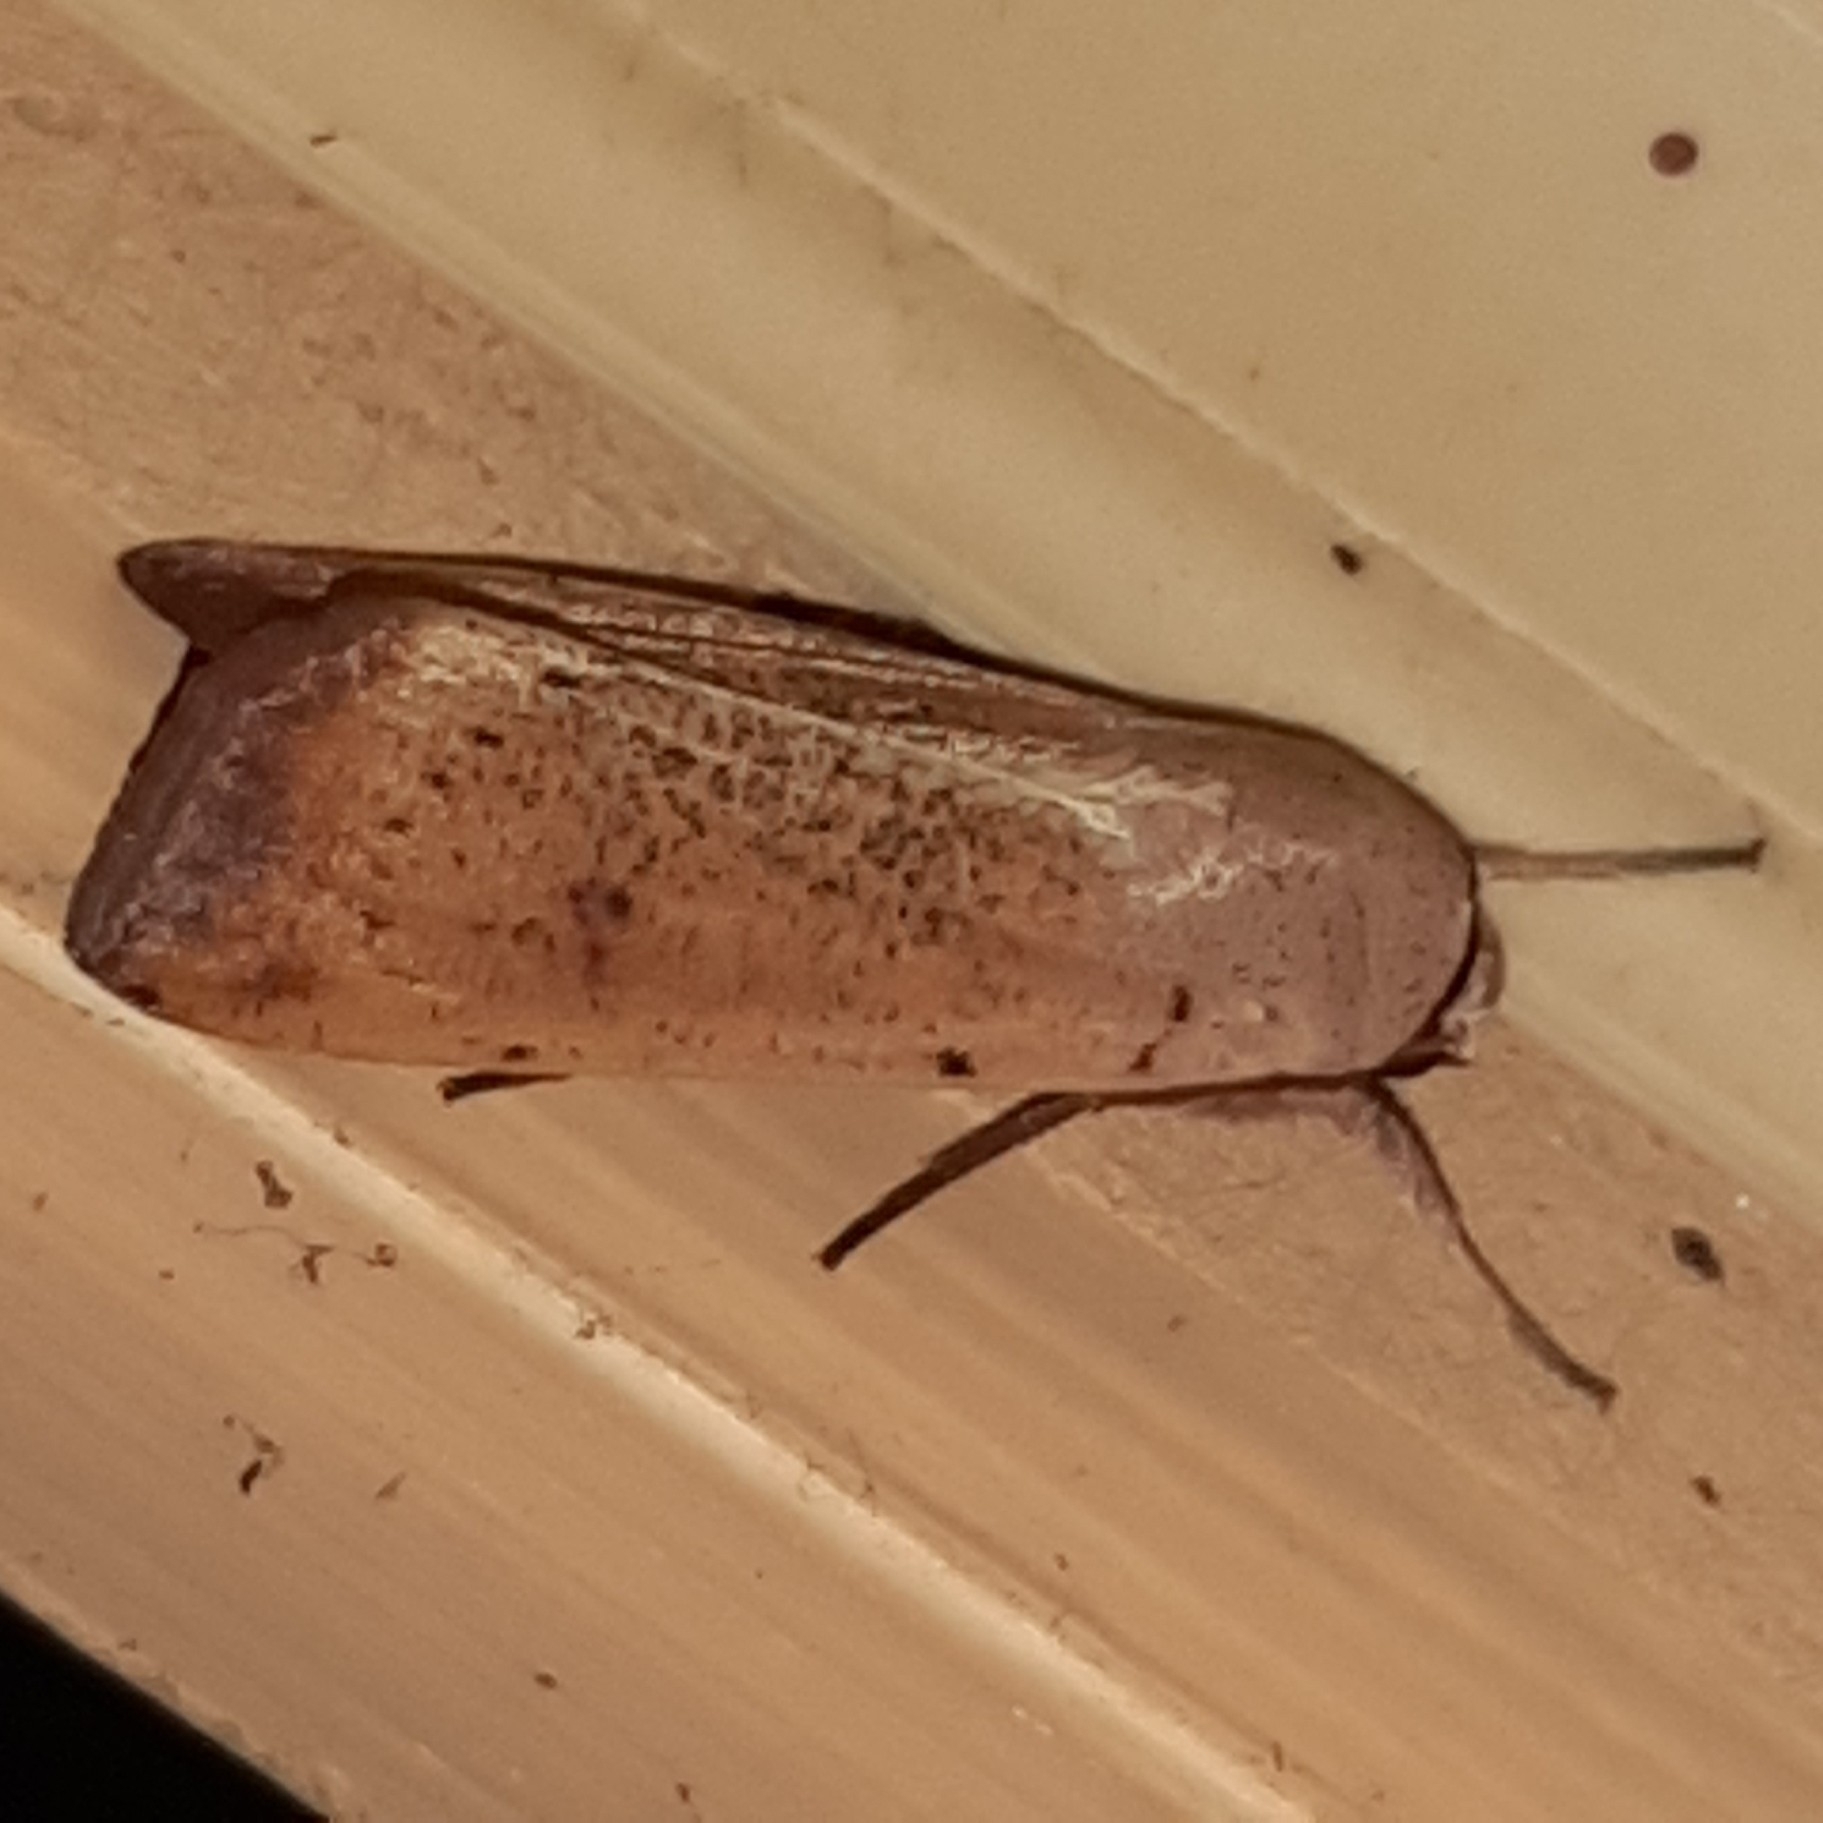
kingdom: Animalia
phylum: Arthropoda
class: Insecta
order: Lepidoptera
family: Noctuidae
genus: Anicla
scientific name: Anicla ignicans
